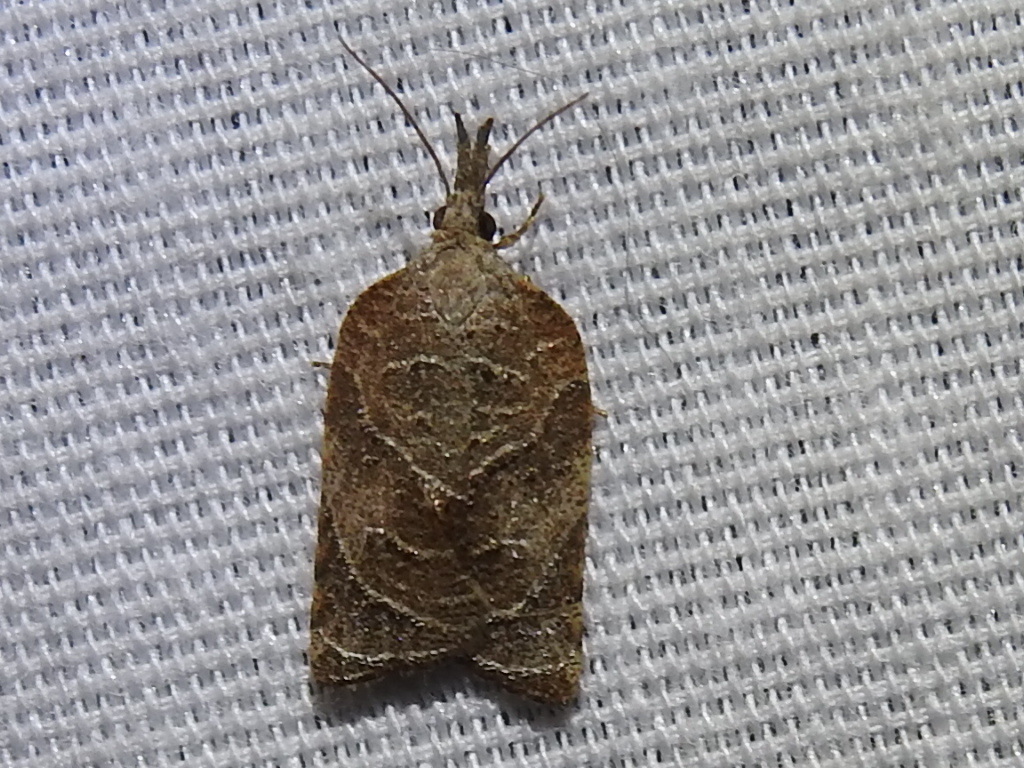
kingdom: Animalia
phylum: Arthropoda
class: Insecta
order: Lepidoptera
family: Tortricidae
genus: Platynota
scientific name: Platynota rostrana
